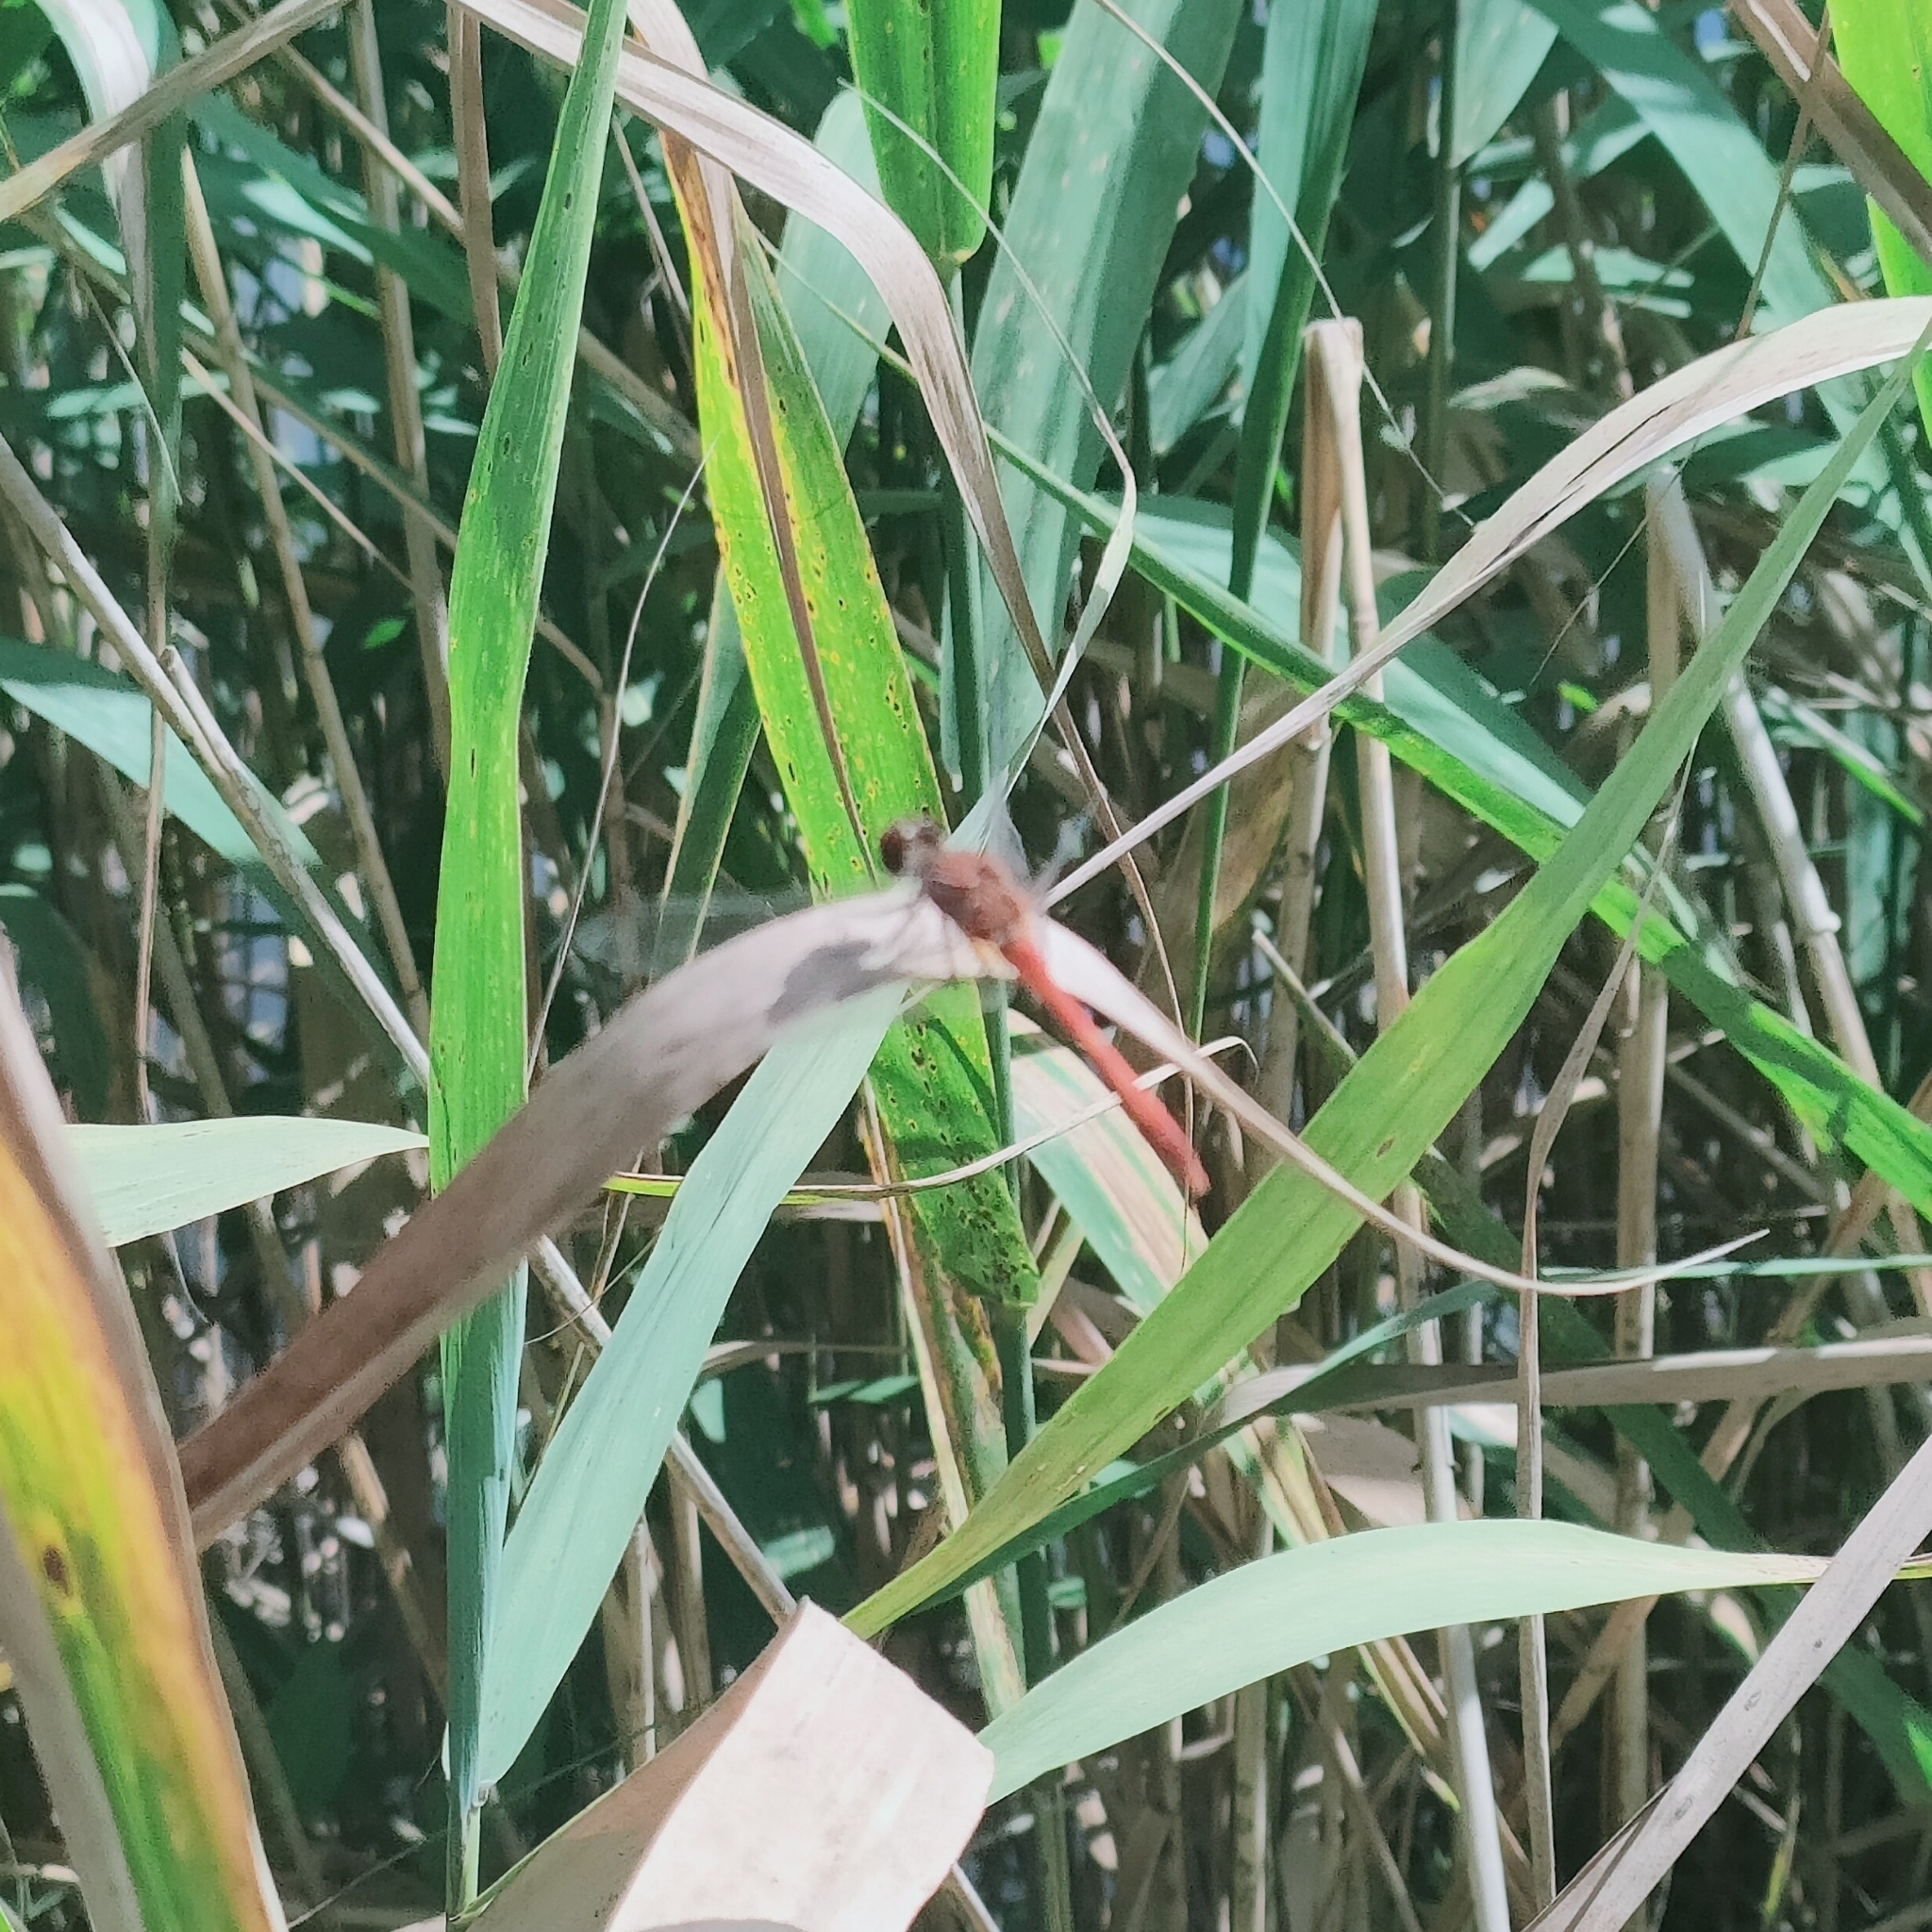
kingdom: Animalia
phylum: Arthropoda
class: Insecta
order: Odonata
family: Libellulidae
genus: Sympetrum
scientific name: Sympetrum sanguineum
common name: Ruddy darter
